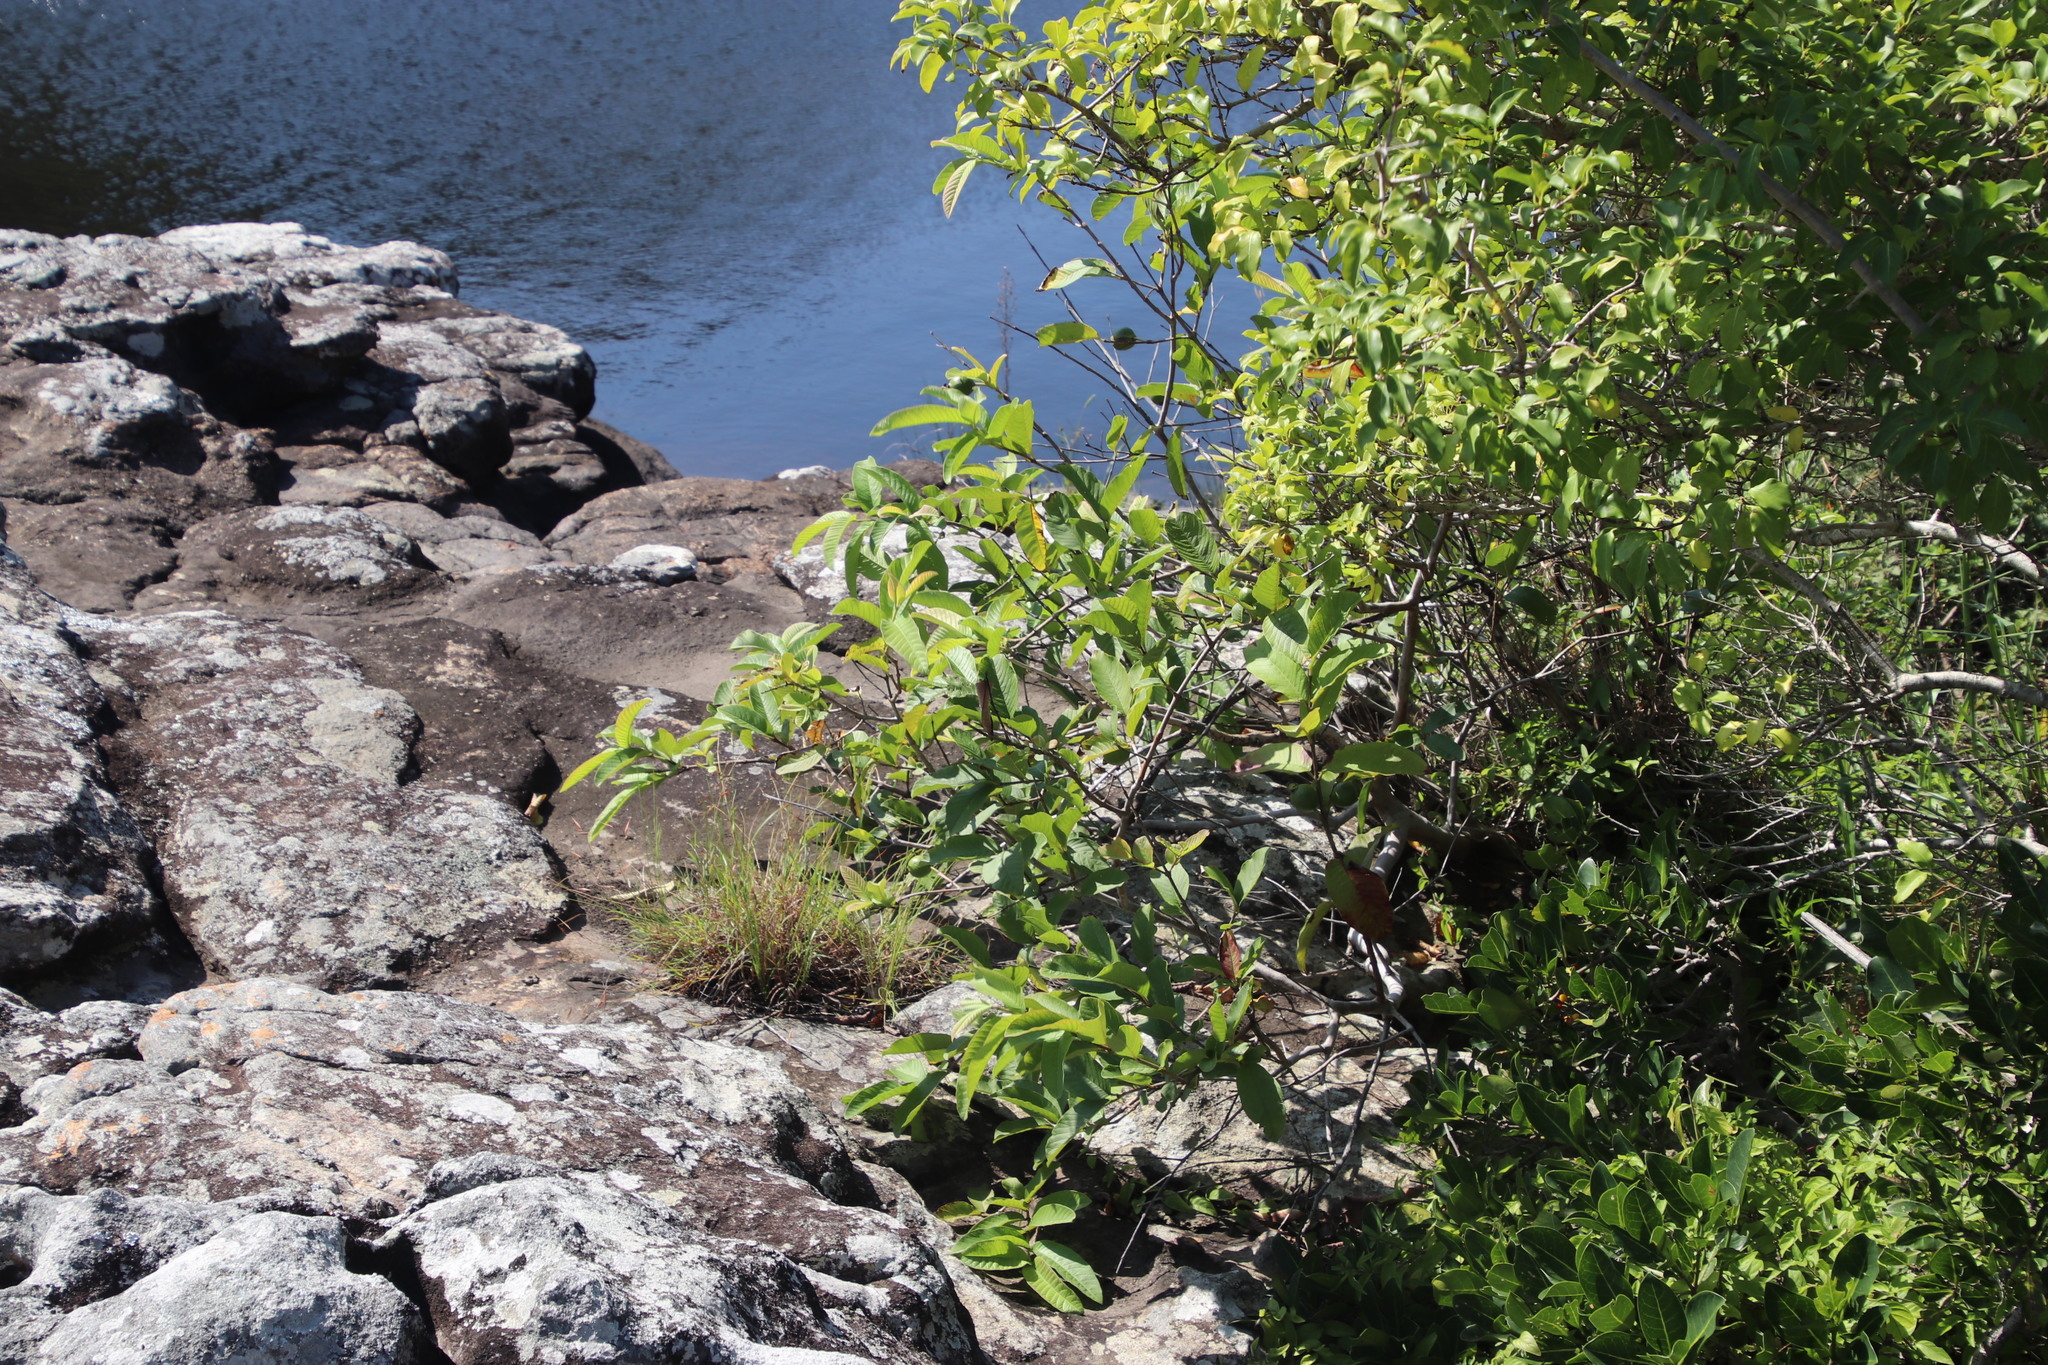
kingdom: Plantae
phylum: Tracheophyta
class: Magnoliopsida
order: Myrtales
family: Myrtaceae
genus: Psidium
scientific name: Psidium guajava
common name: Guava
